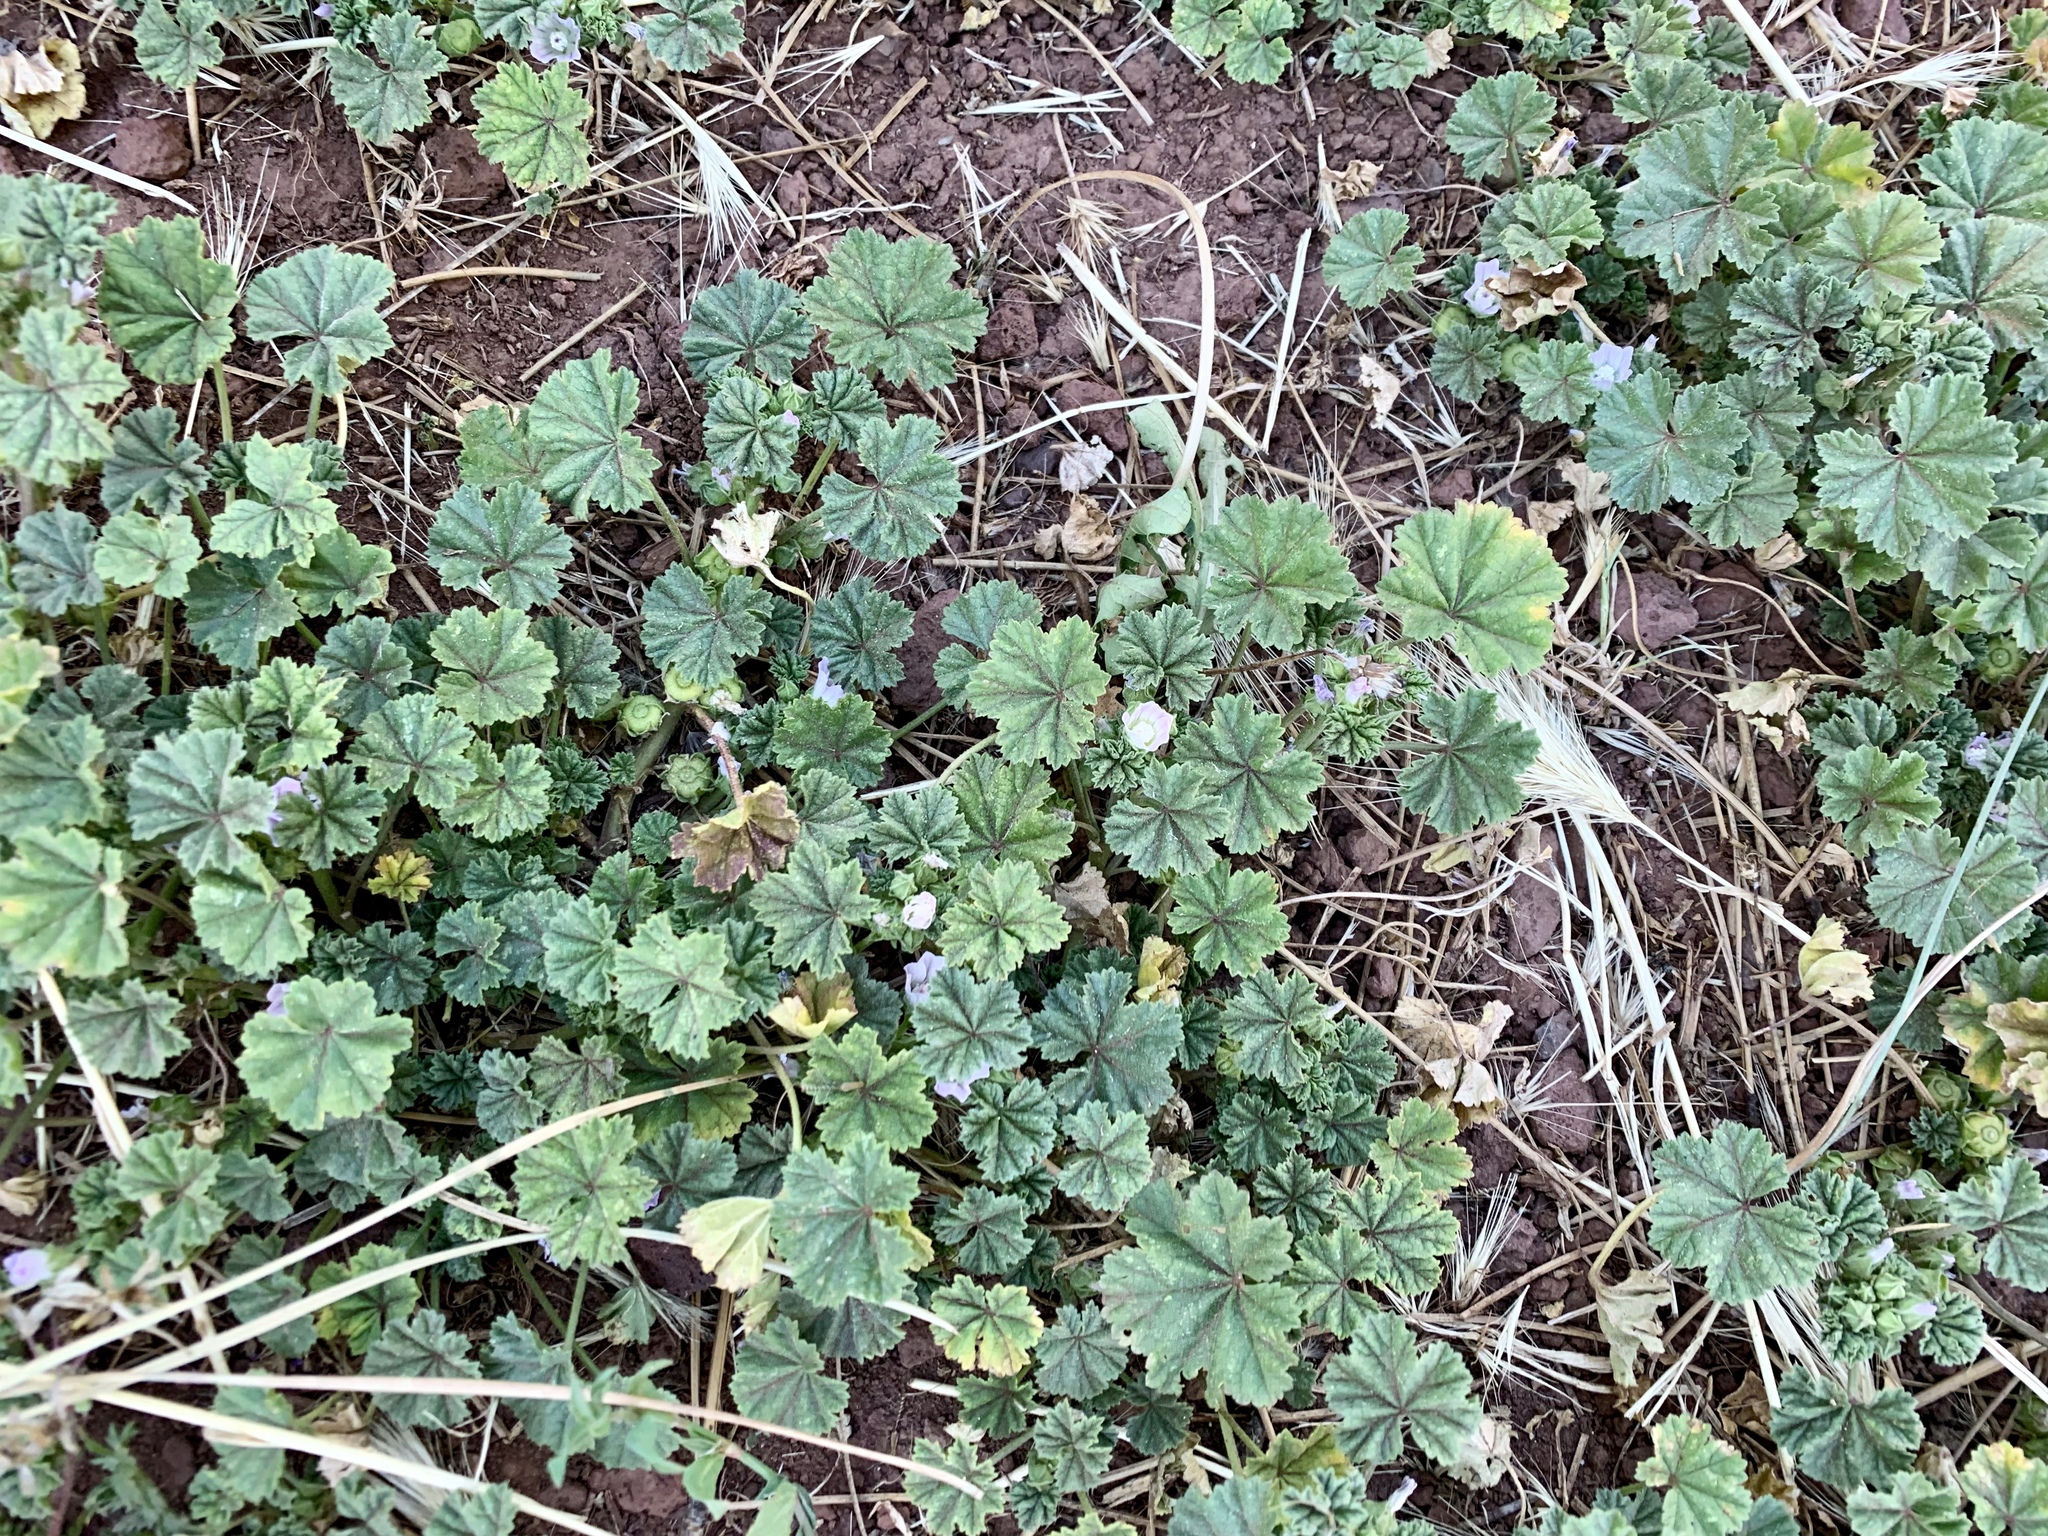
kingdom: Plantae
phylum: Tracheophyta
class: Magnoliopsida
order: Malvales
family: Malvaceae
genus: Malva
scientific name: Malva neglecta
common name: Common mallow
